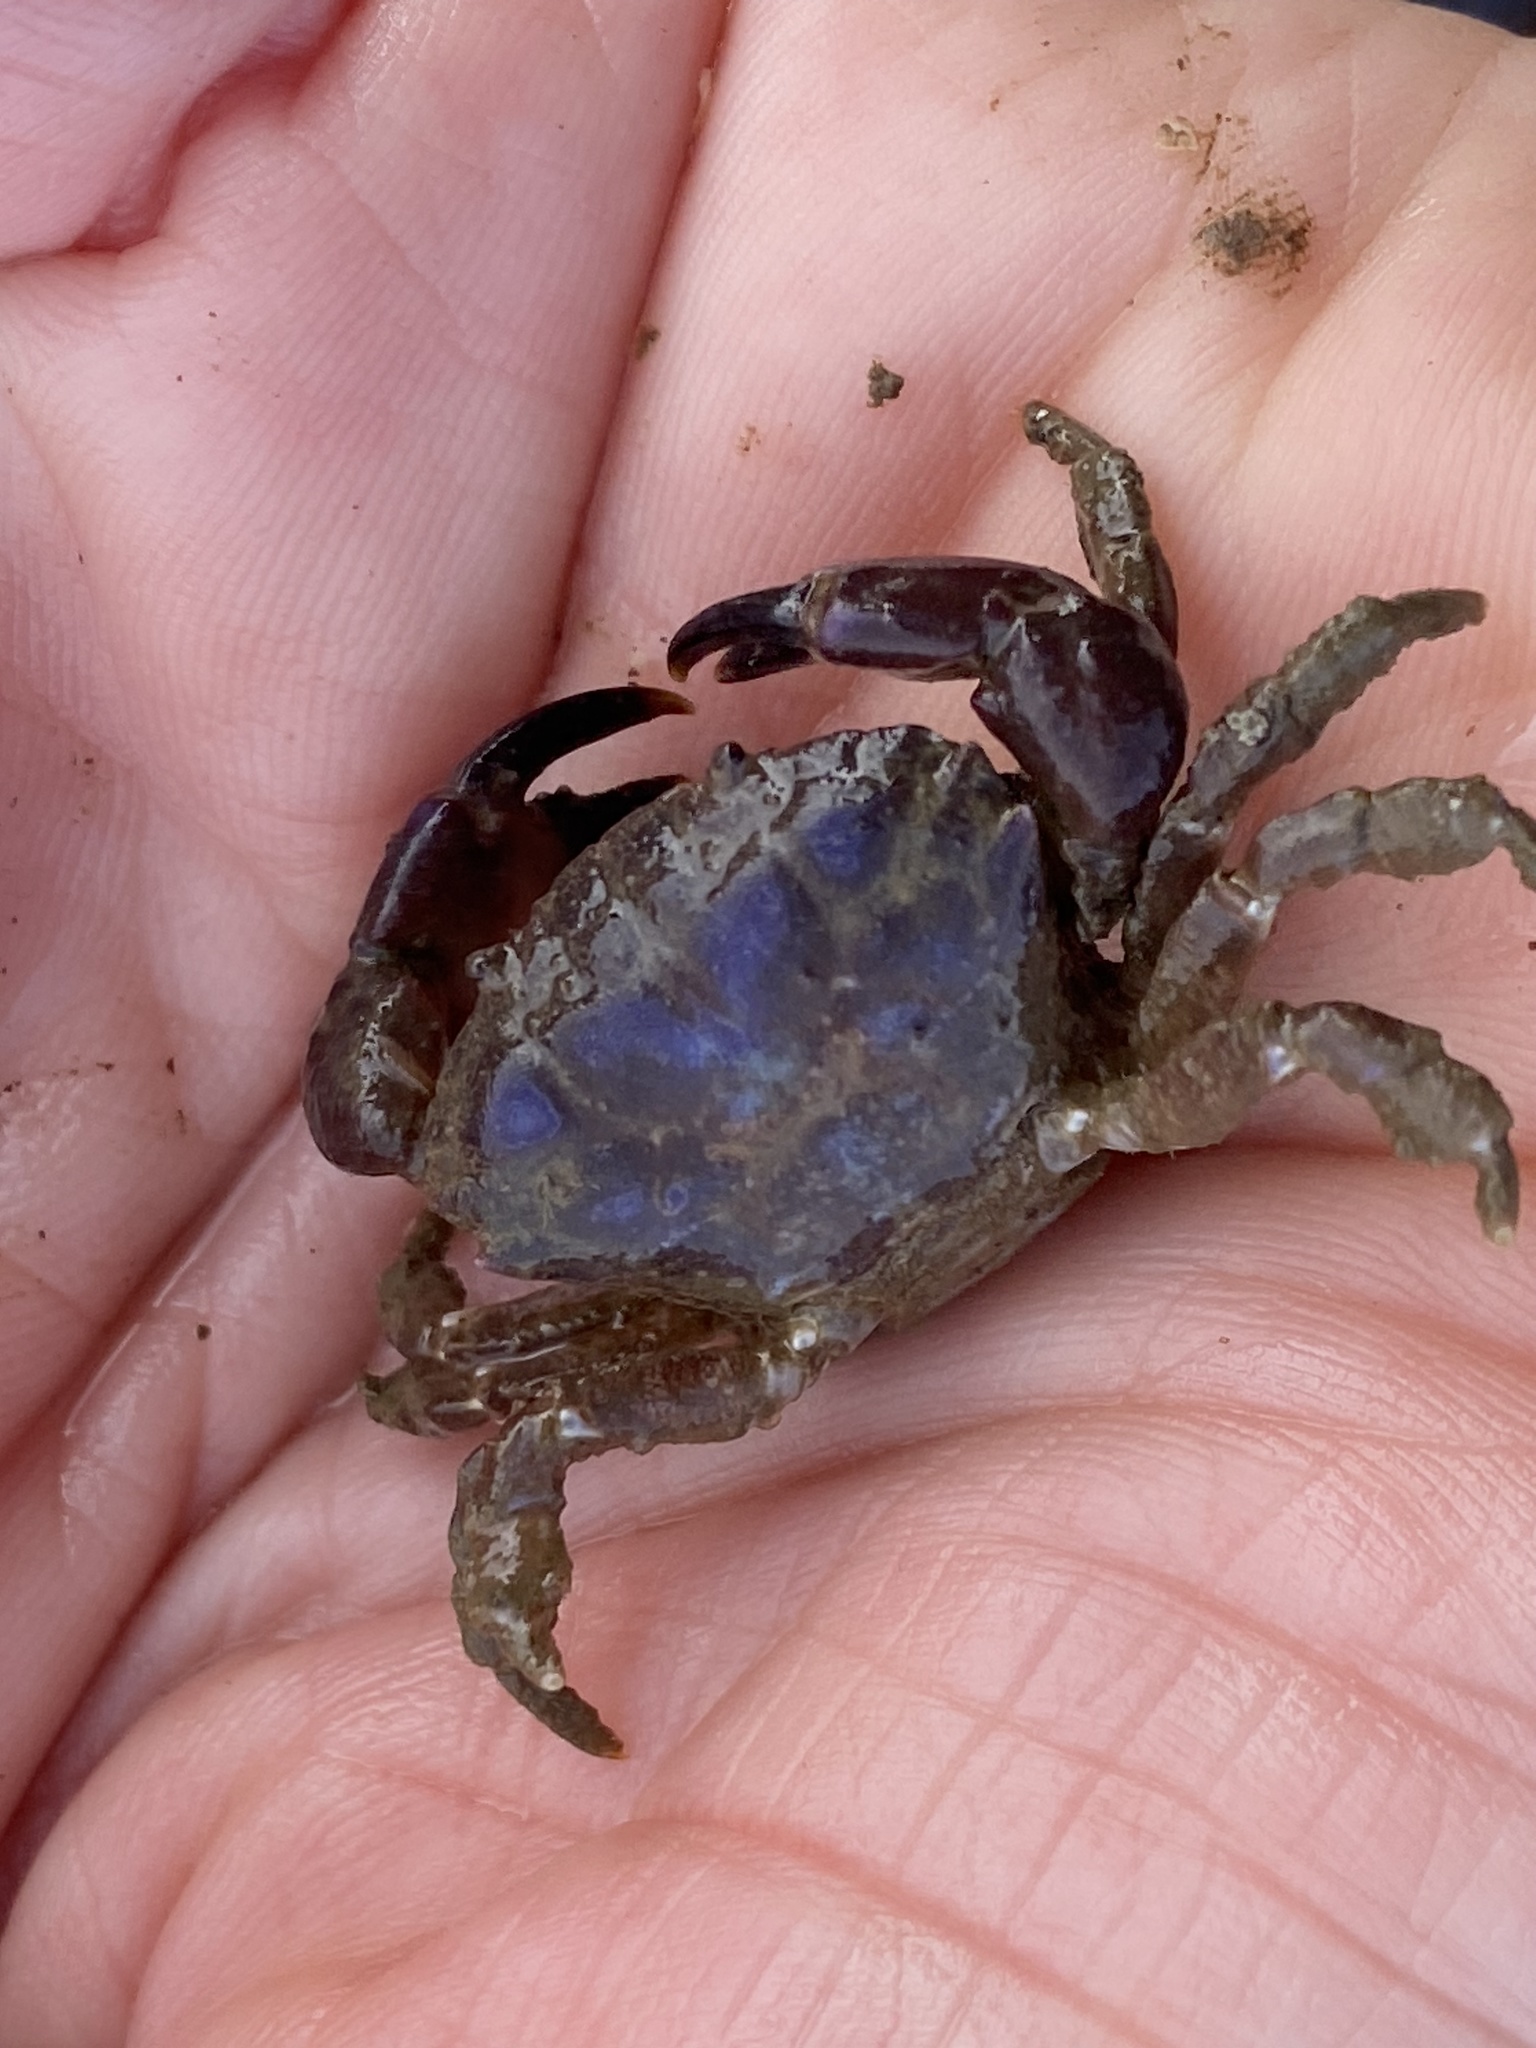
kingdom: Animalia
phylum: Arthropoda
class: Malacostraca
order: Decapoda
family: Panopeidae
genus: Lophopanopeus
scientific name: Lophopanopeus bellus
